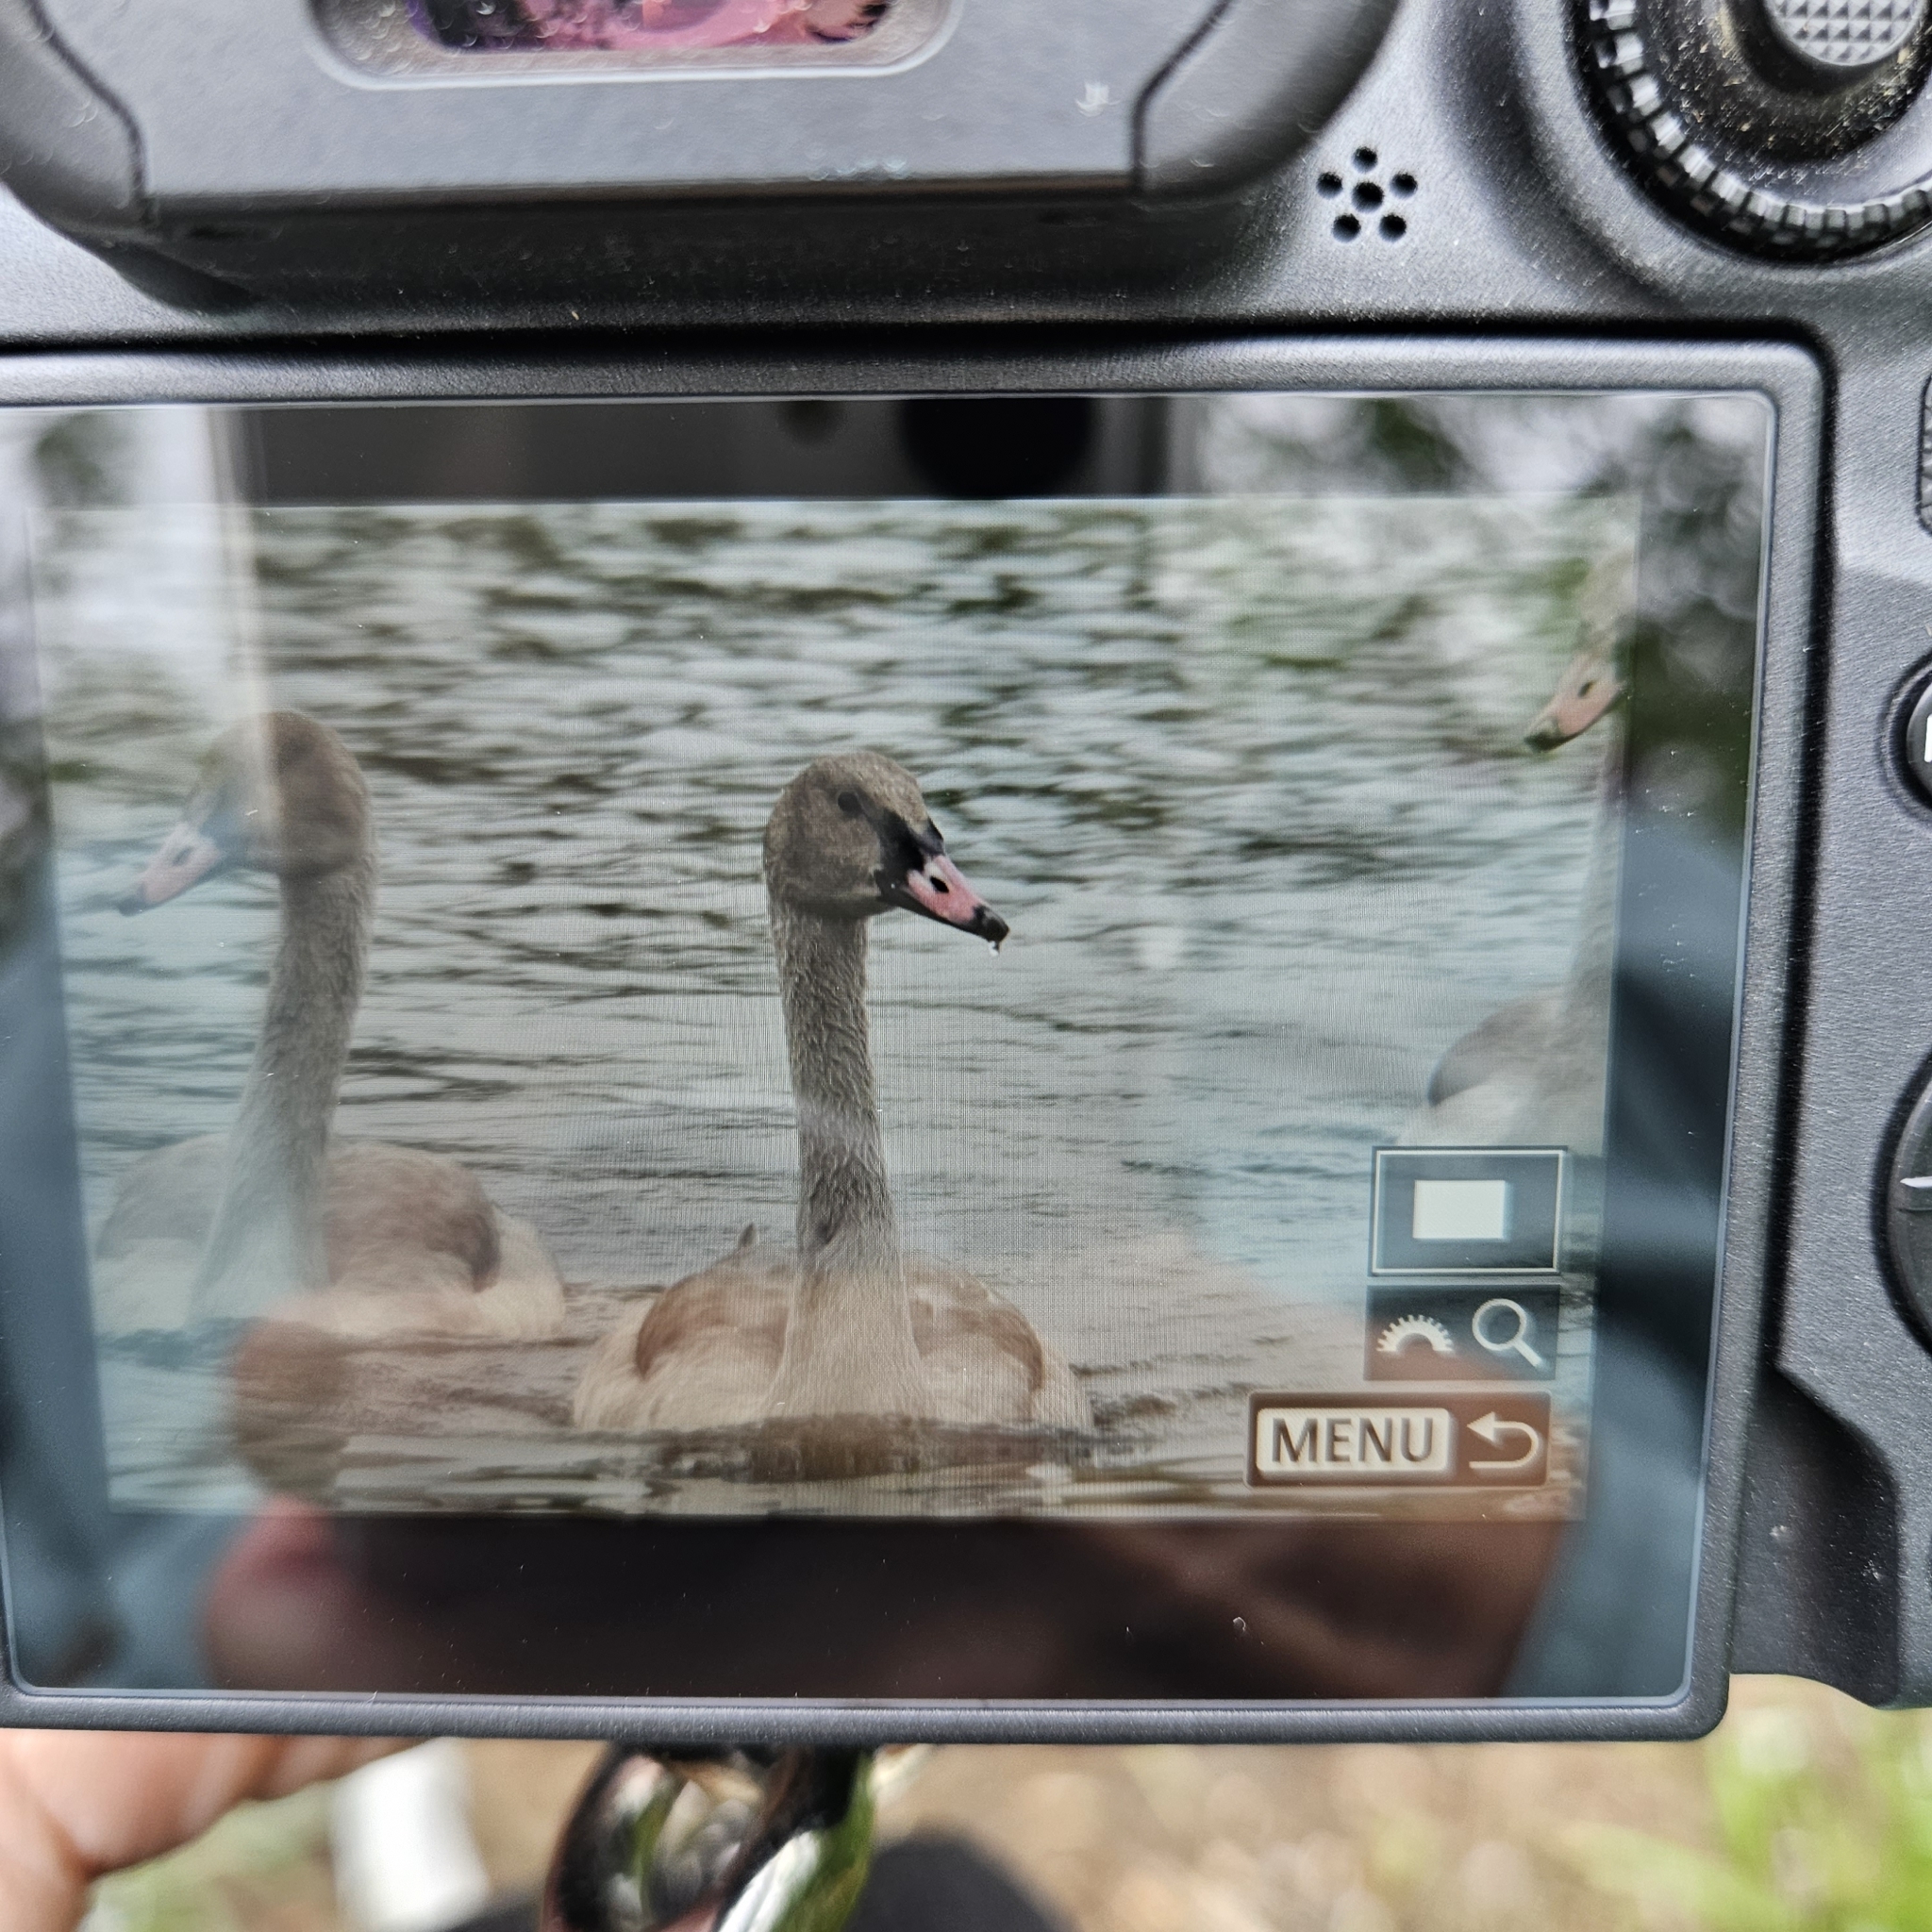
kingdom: Animalia
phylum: Chordata
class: Aves
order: Anseriformes
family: Anatidae
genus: Cygnus
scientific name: Cygnus olor
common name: Mute swan
